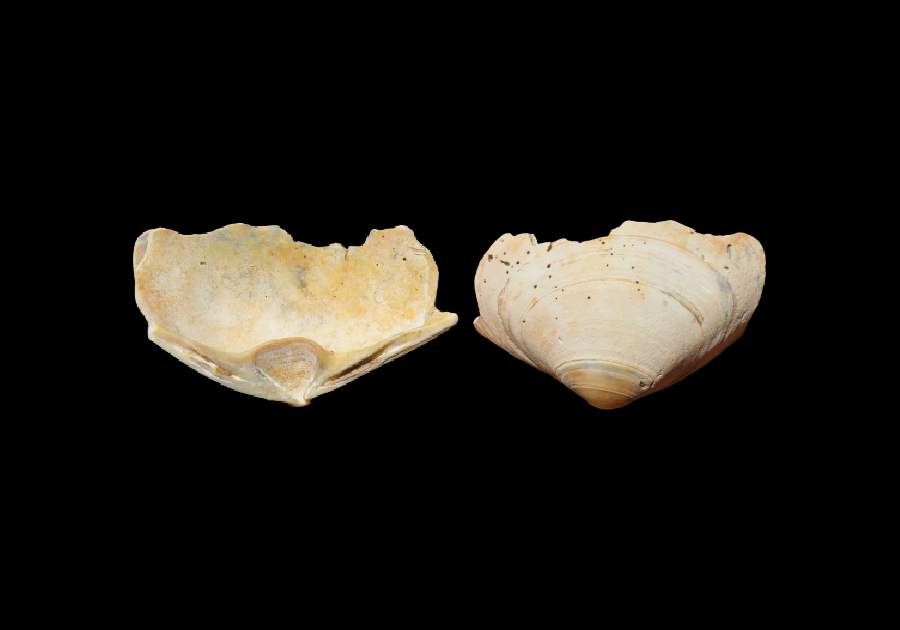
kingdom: Animalia
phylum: Mollusca
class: Bivalvia
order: Venerida
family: Mactridae
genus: Spisula
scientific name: Spisula solidissima
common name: Atlantic surf clam
